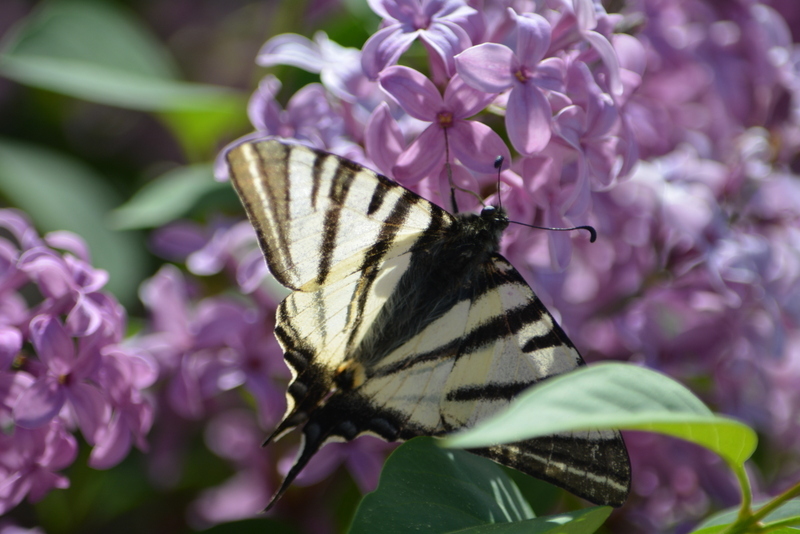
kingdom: Animalia
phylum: Arthropoda
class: Insecta
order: Lepidoptera
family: Papilionidae
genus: Iphiclides
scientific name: Iphiclides podalirius
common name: Scarce swallowtail
